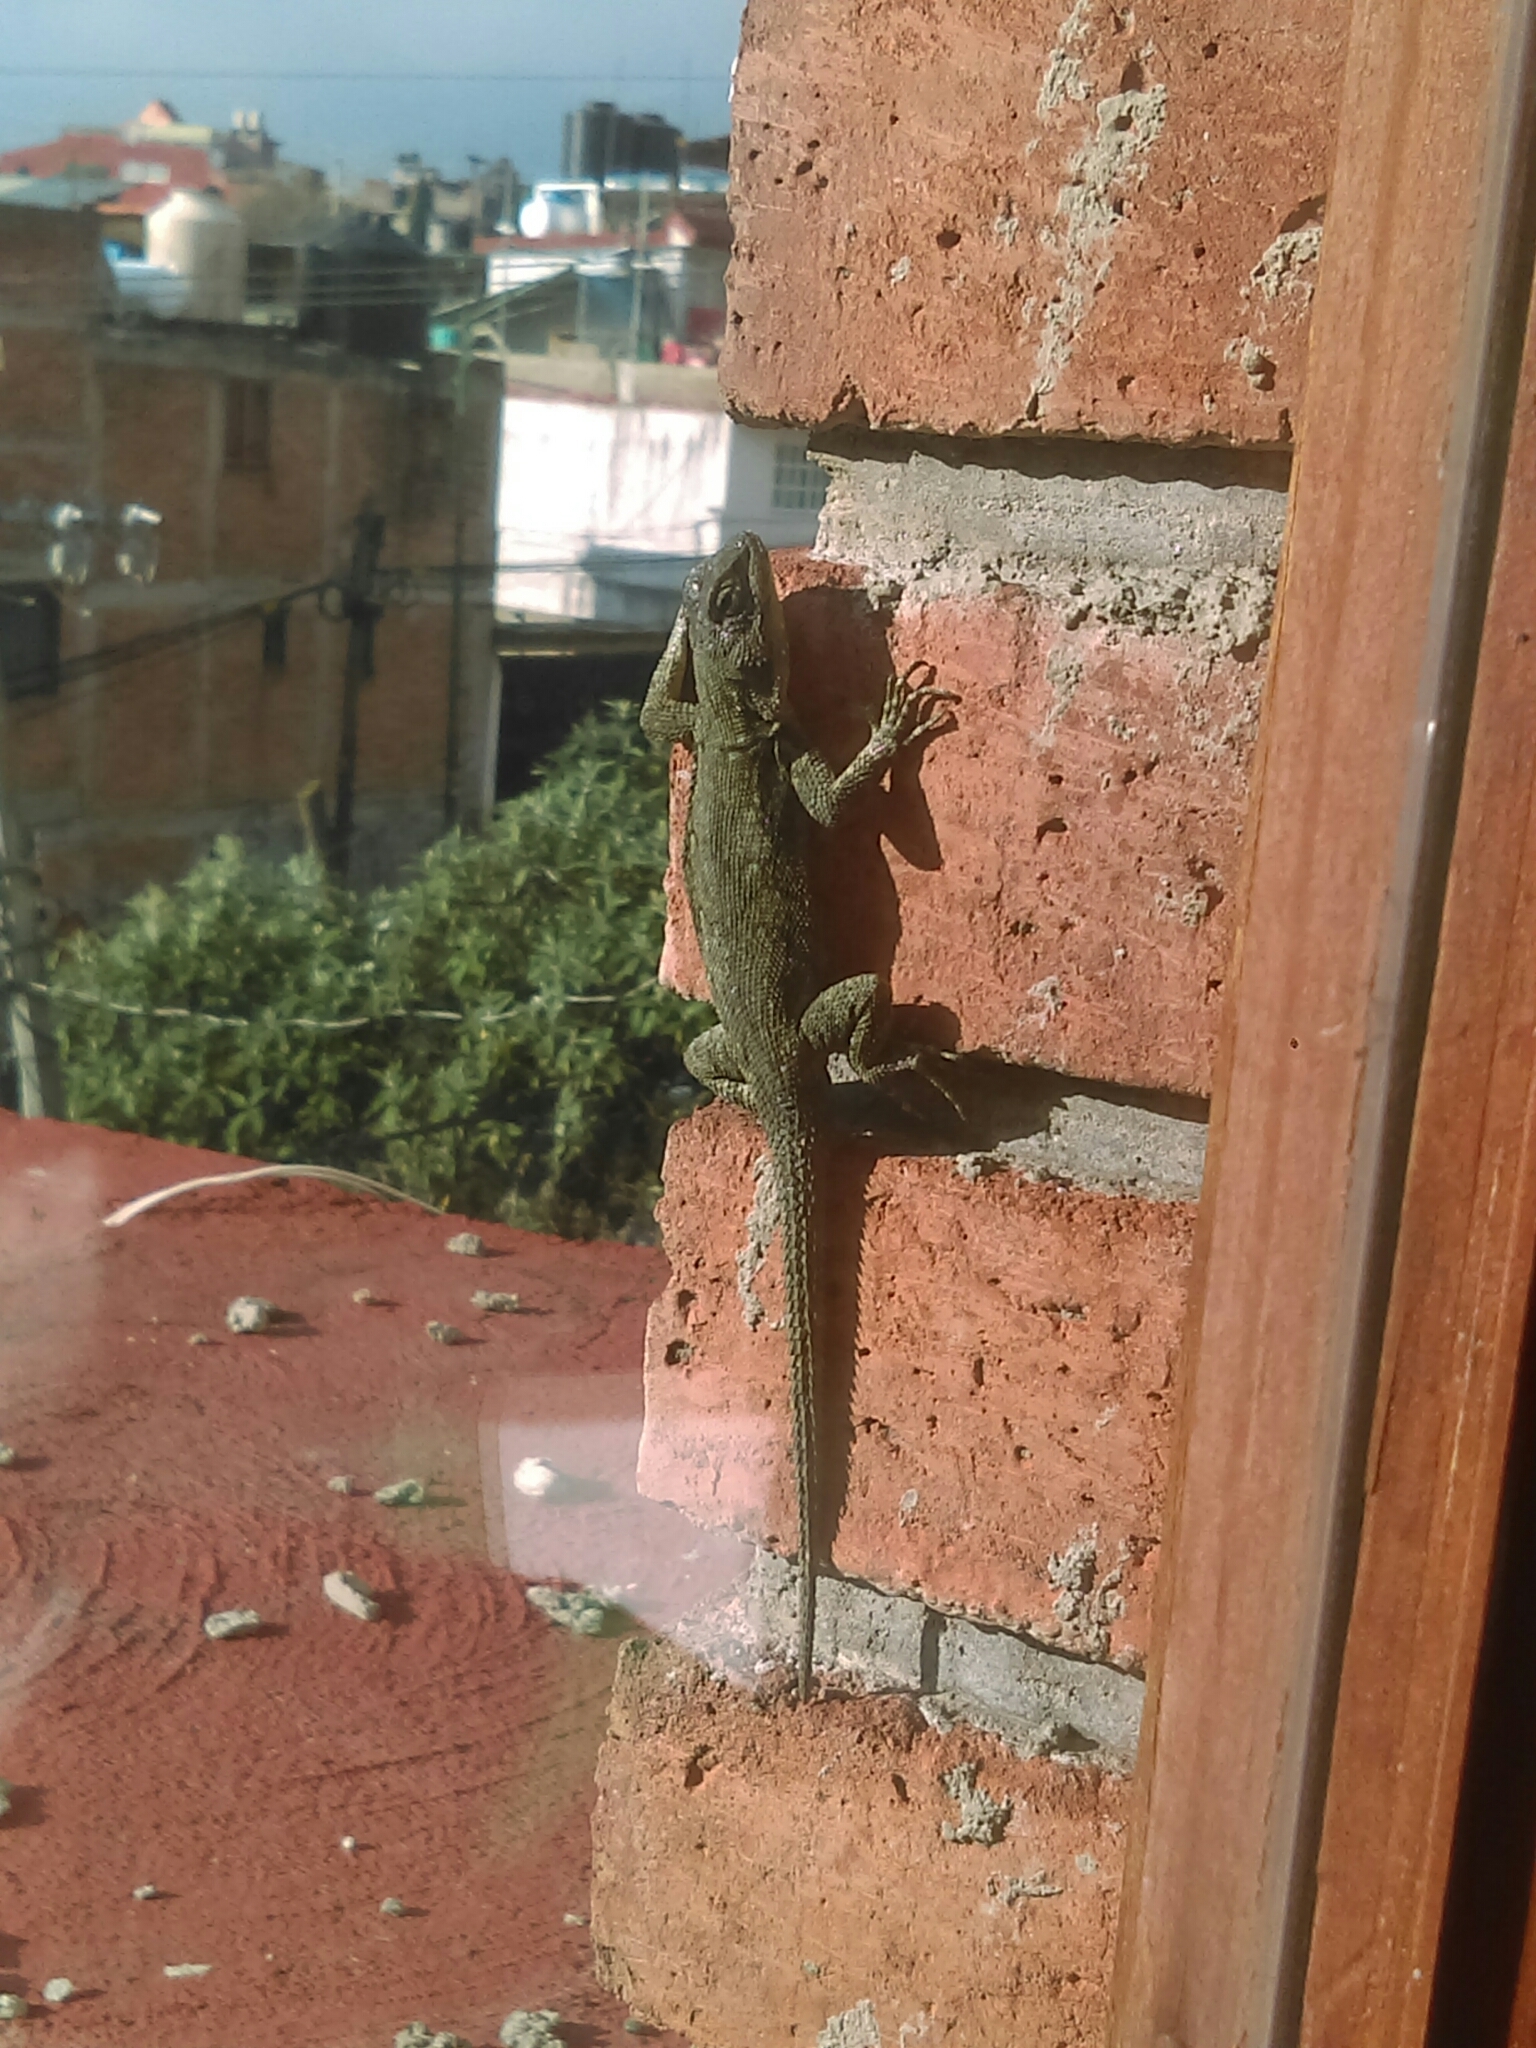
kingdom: Animalia
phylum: Chordata
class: Squamata
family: Phrynosomatidae
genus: Sceloporus
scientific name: Sceloporus grammicus
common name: Mesquite lizard
